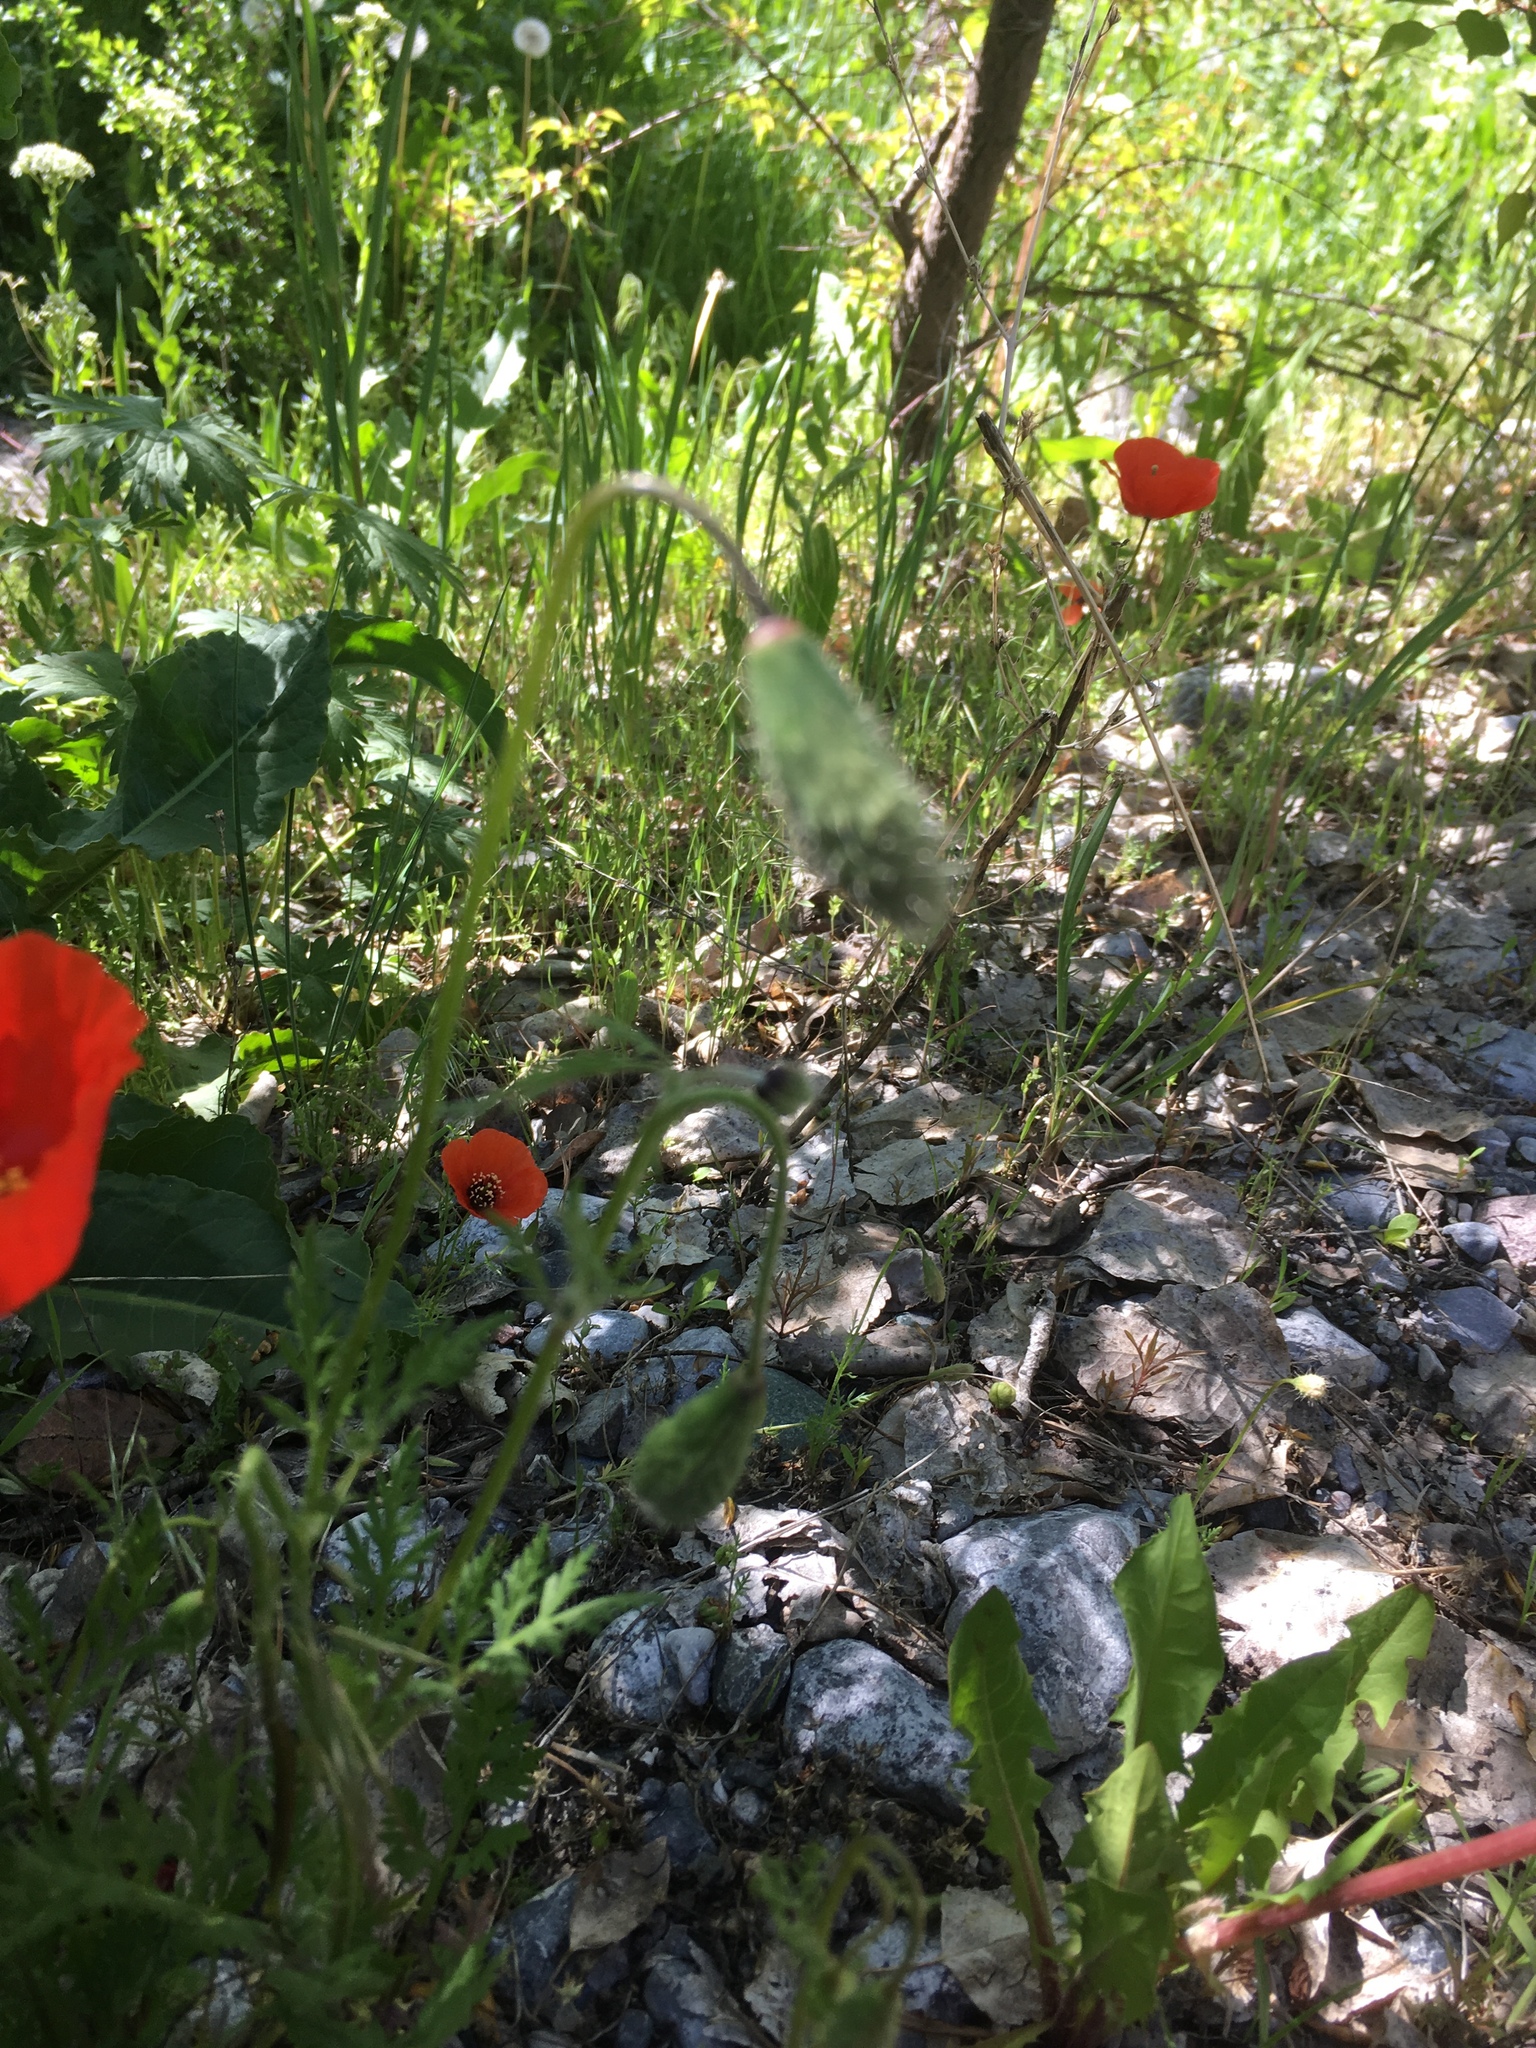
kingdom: Plantae
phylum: Tracheophyta
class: Magnoliopsida
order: Ranunculales
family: Papaveraceae
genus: Roemeria
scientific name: Roemeria refracta
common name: Spotted asian poppy
